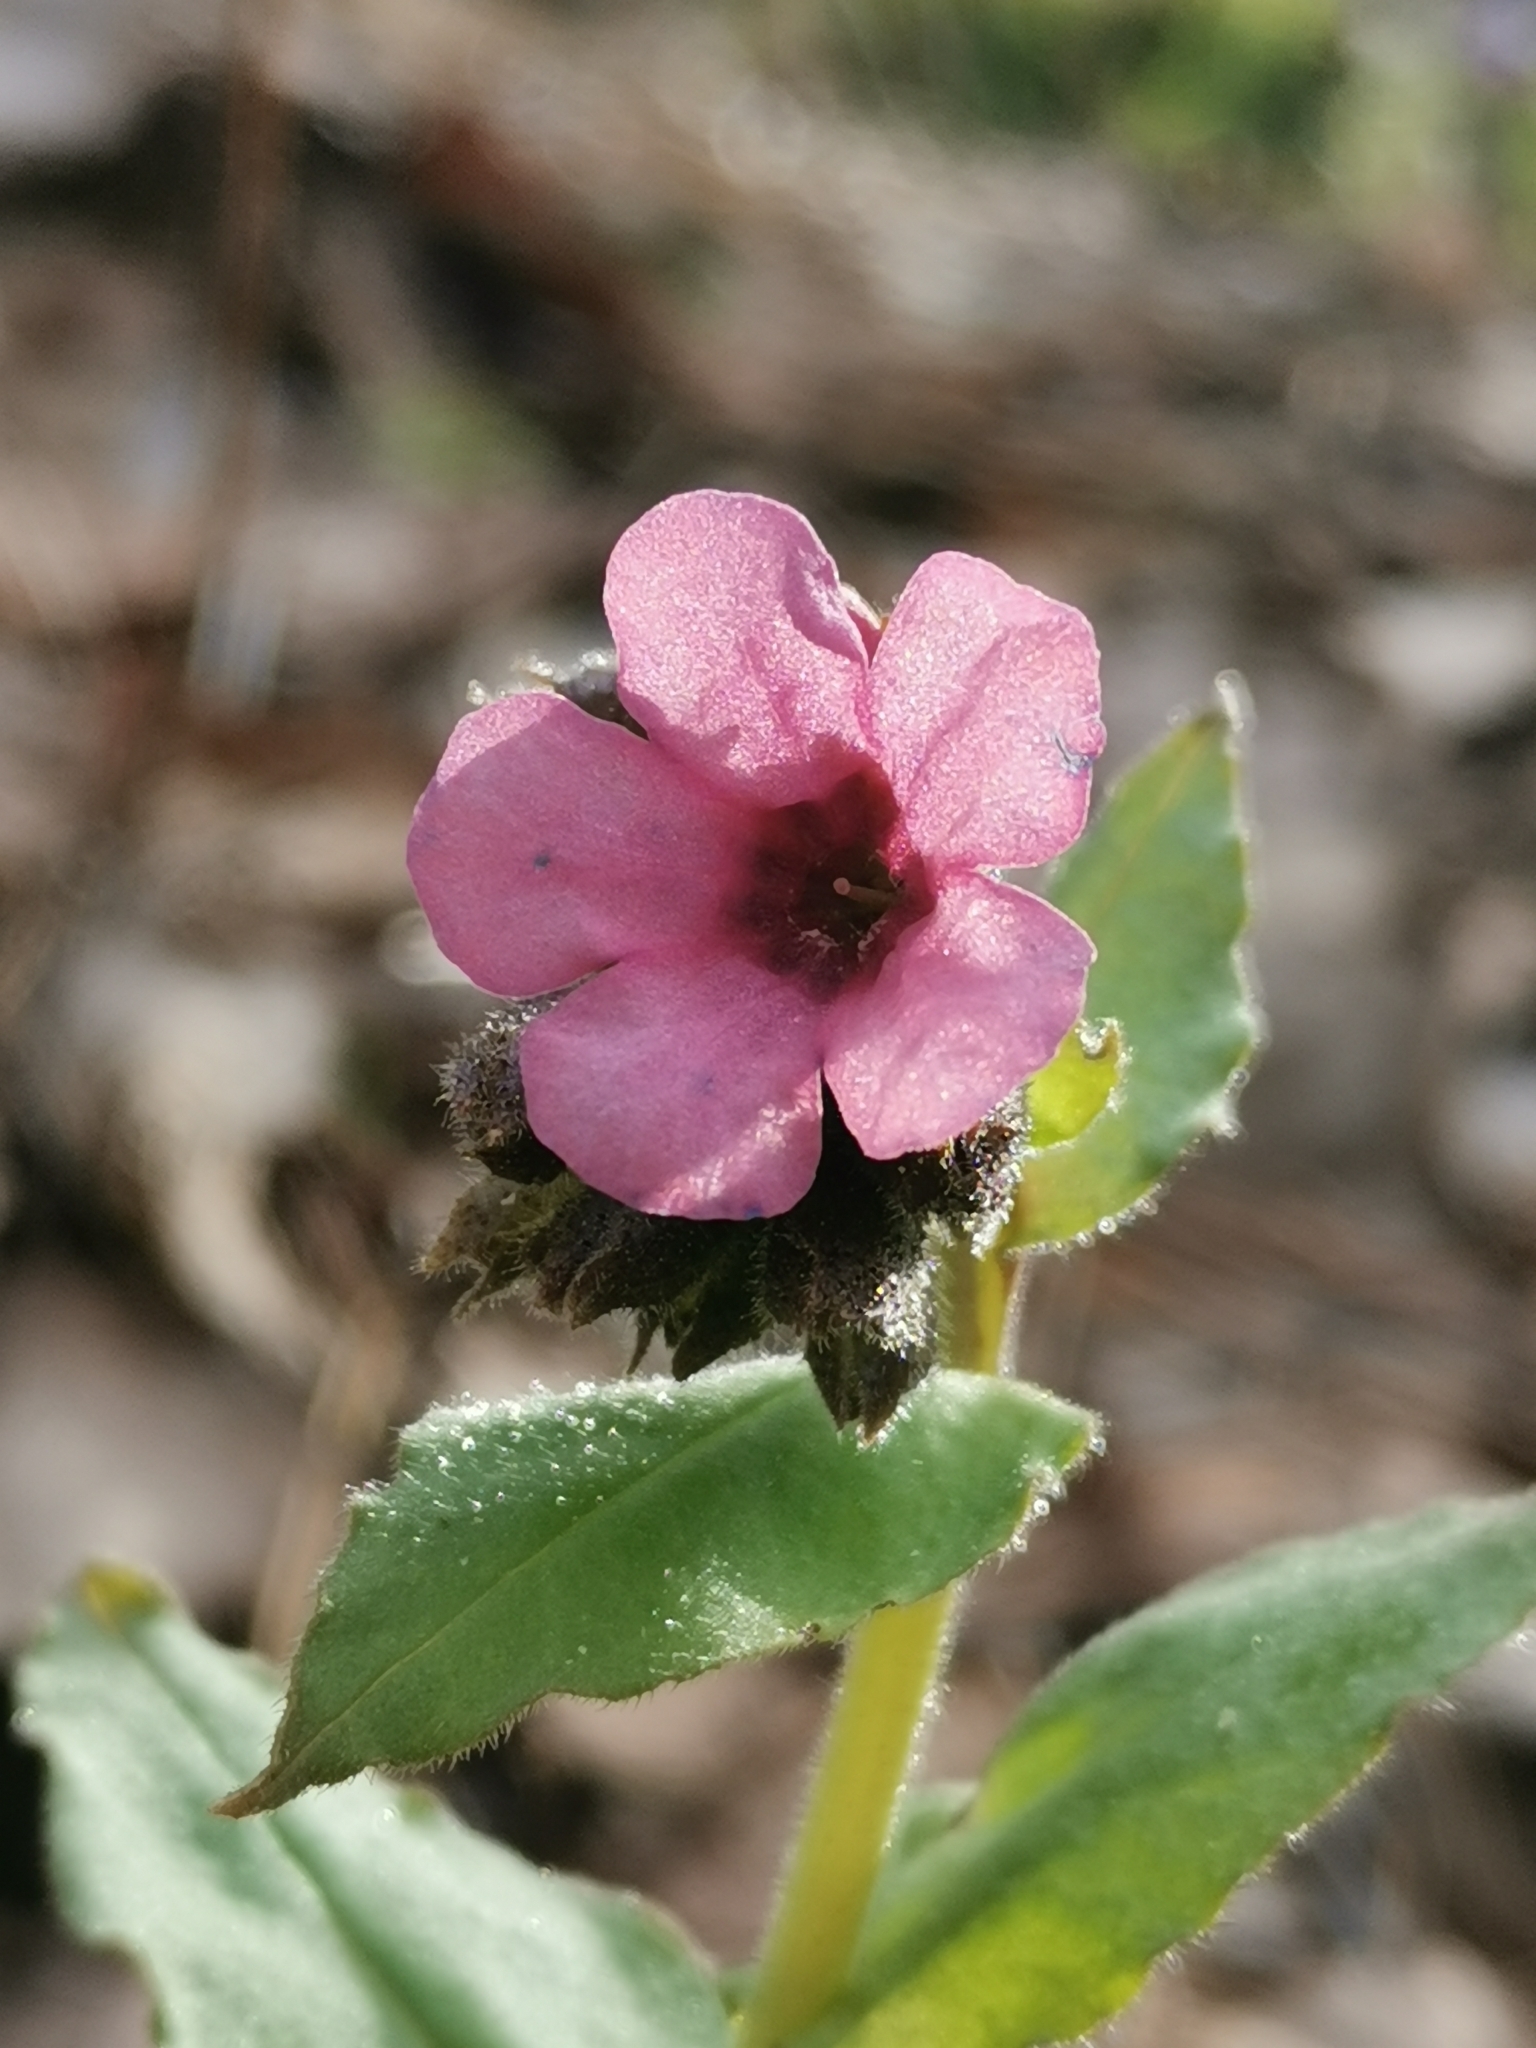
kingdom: Plantae
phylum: Tracheophyta
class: Magnoliopsida
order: Boraginales
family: Boraginaceae
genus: Pulmonaria
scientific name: Pulmonaria obscura
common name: Suffolk lungwort
